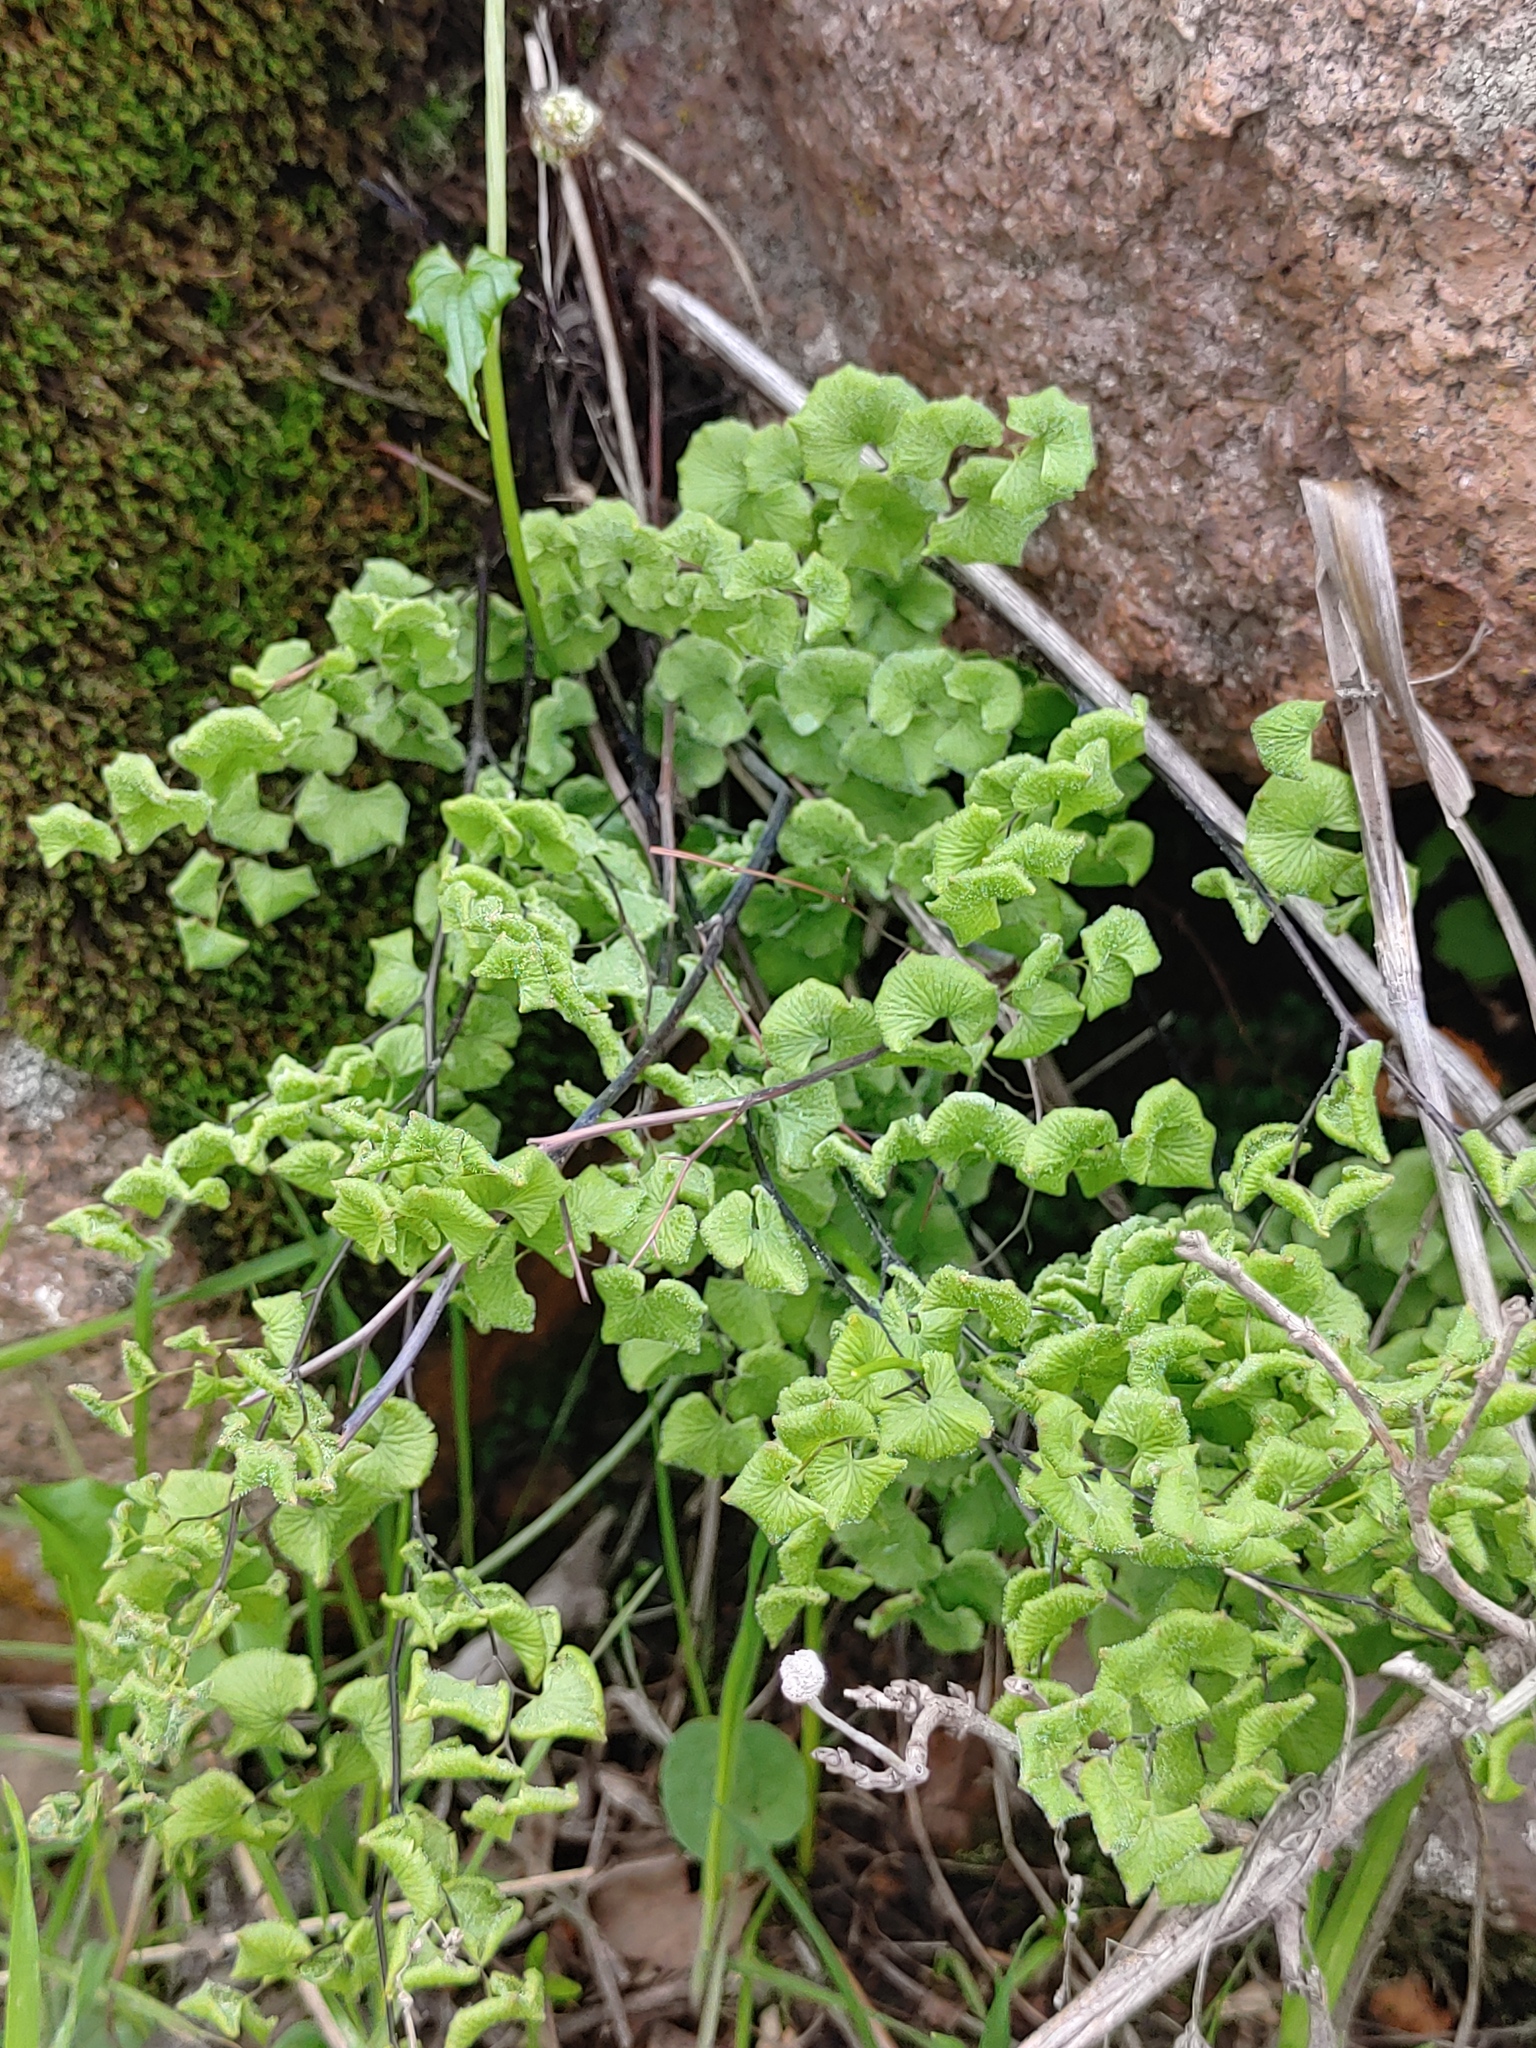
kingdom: Plantae
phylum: Tracheophyta
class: Polypodiopsida
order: Polypodiales
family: Pteridaceae
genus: Adiantum
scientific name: Adiantum chilense
